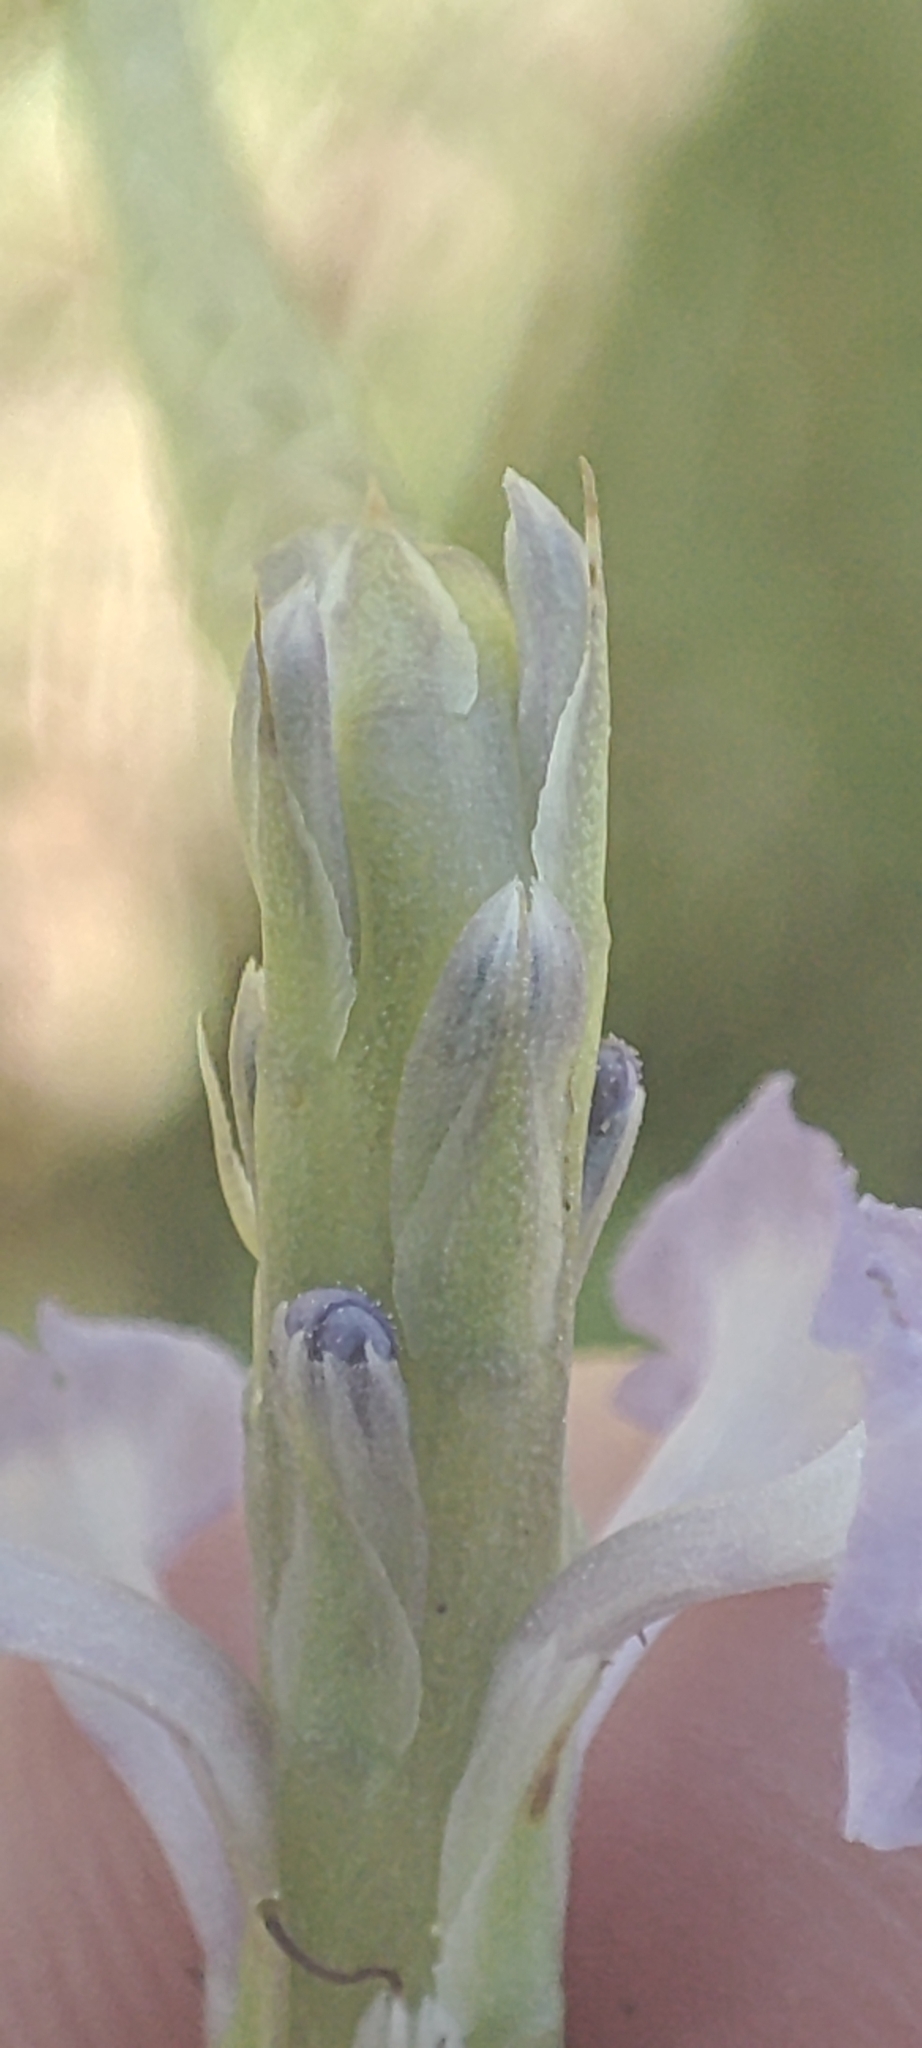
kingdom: Plantae
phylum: Tracheophyta
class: Magnoliopsida
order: Lamiales
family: Verbenaceae
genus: Stachytarpheta
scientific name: Stachytarpheta jamaicensis
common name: Light-blue snakeweed
